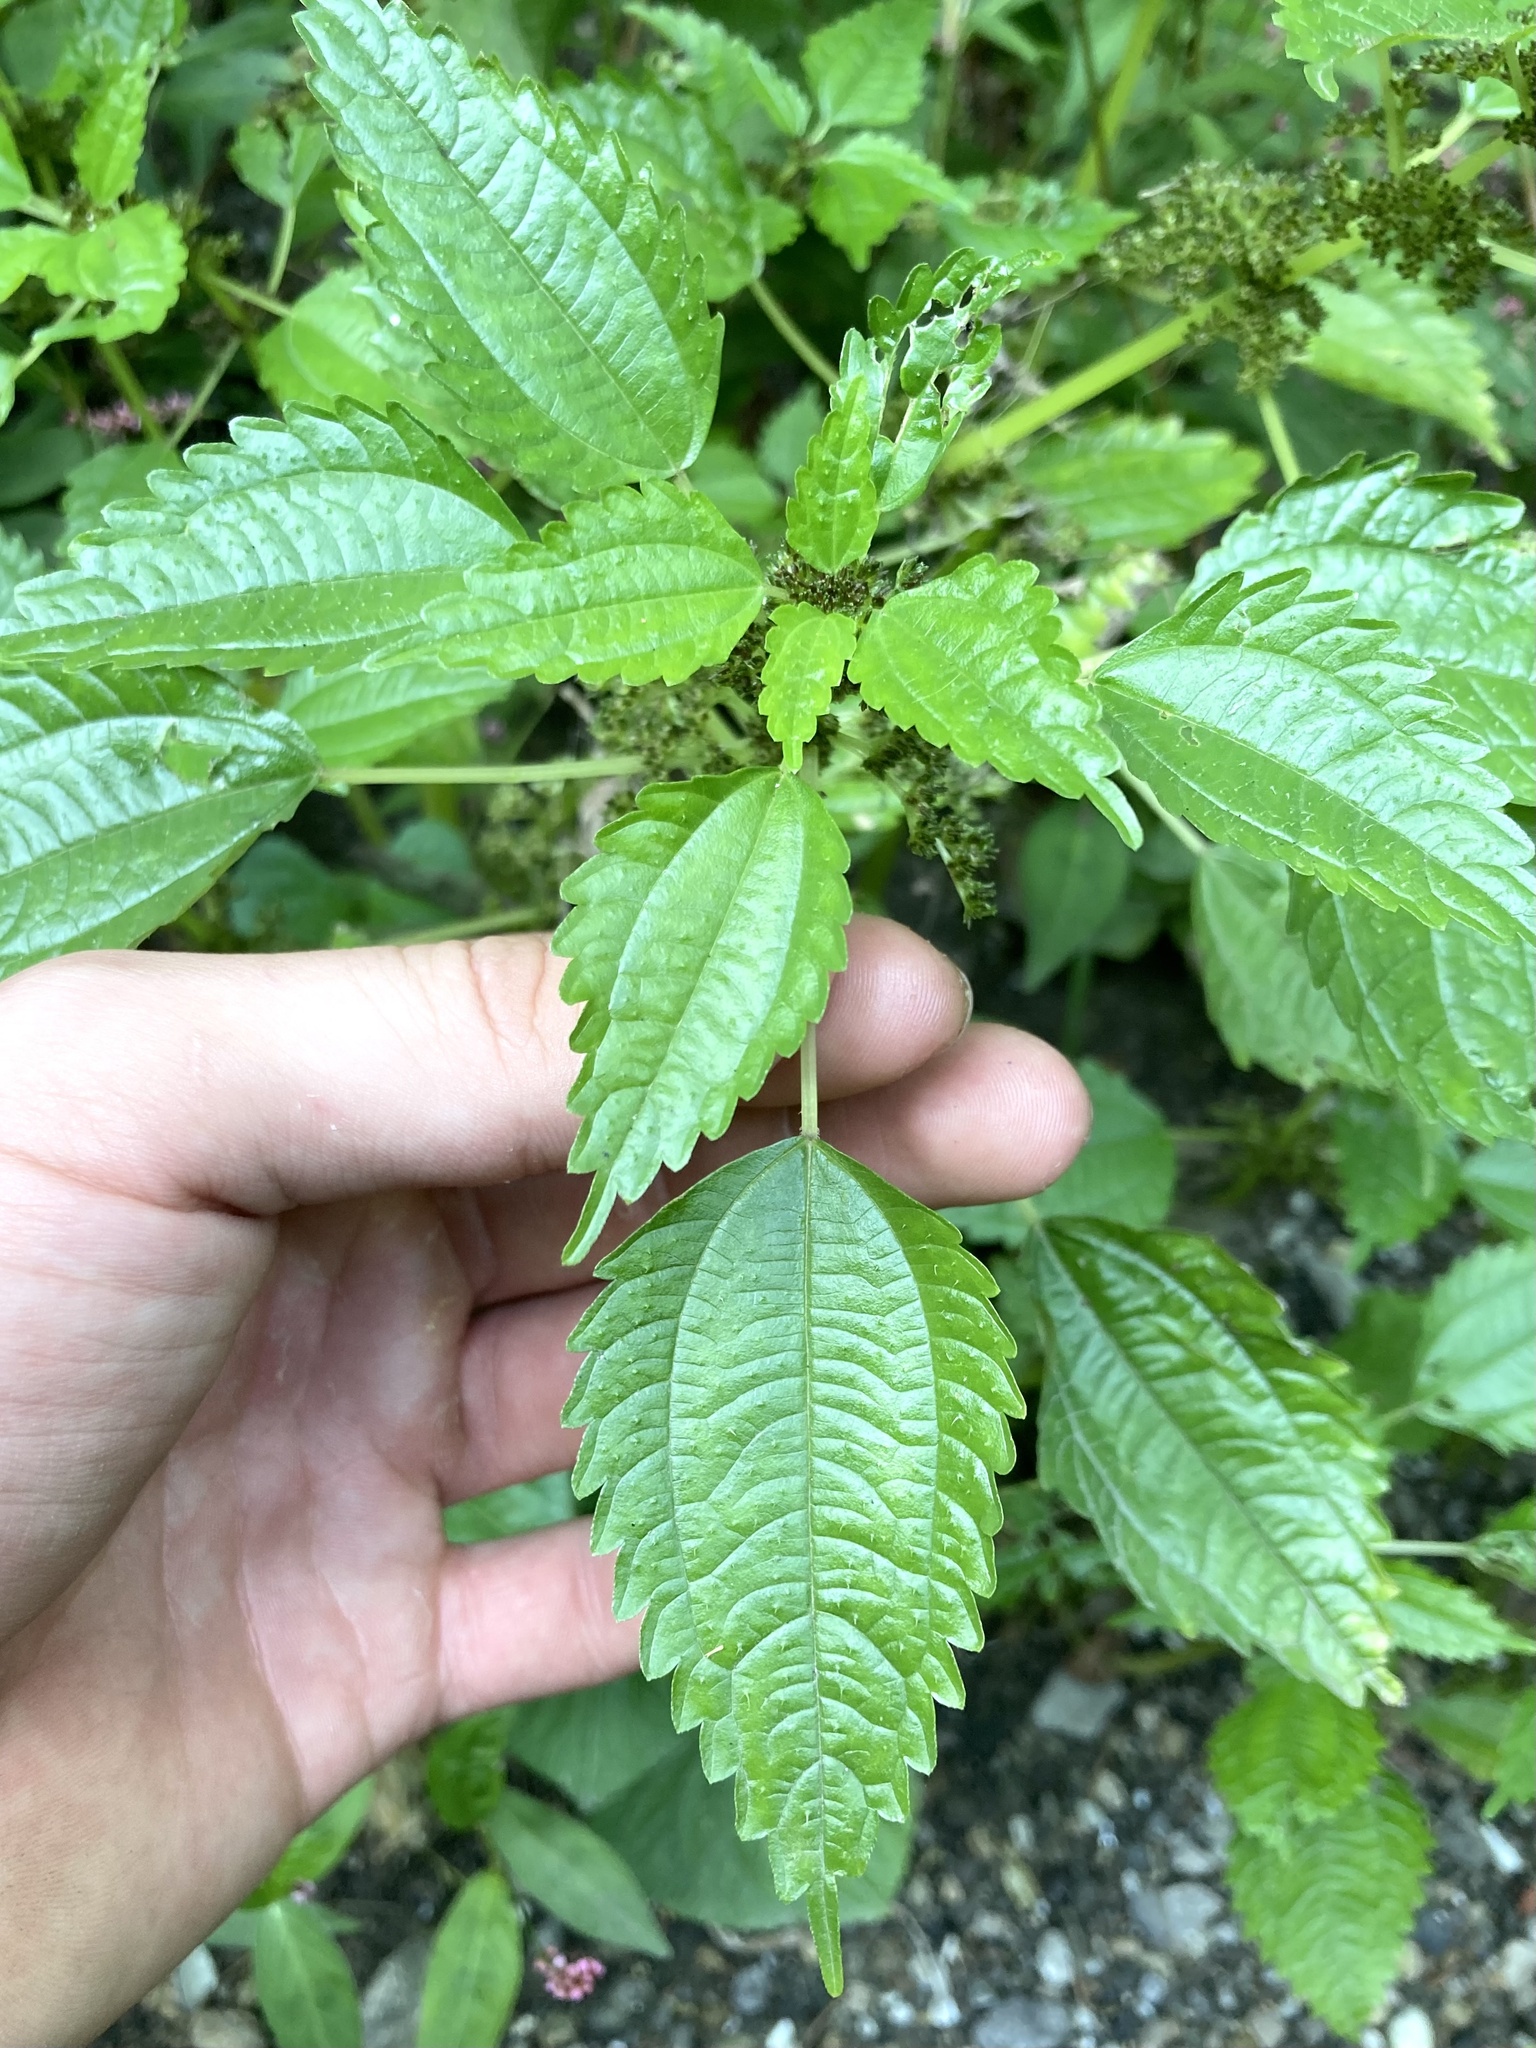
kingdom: Plantae
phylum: Tracheophyta
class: Magnoliopsida
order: Rosales
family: Urticaceae
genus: Pilea
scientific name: Pilea fontana
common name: Clearweed
